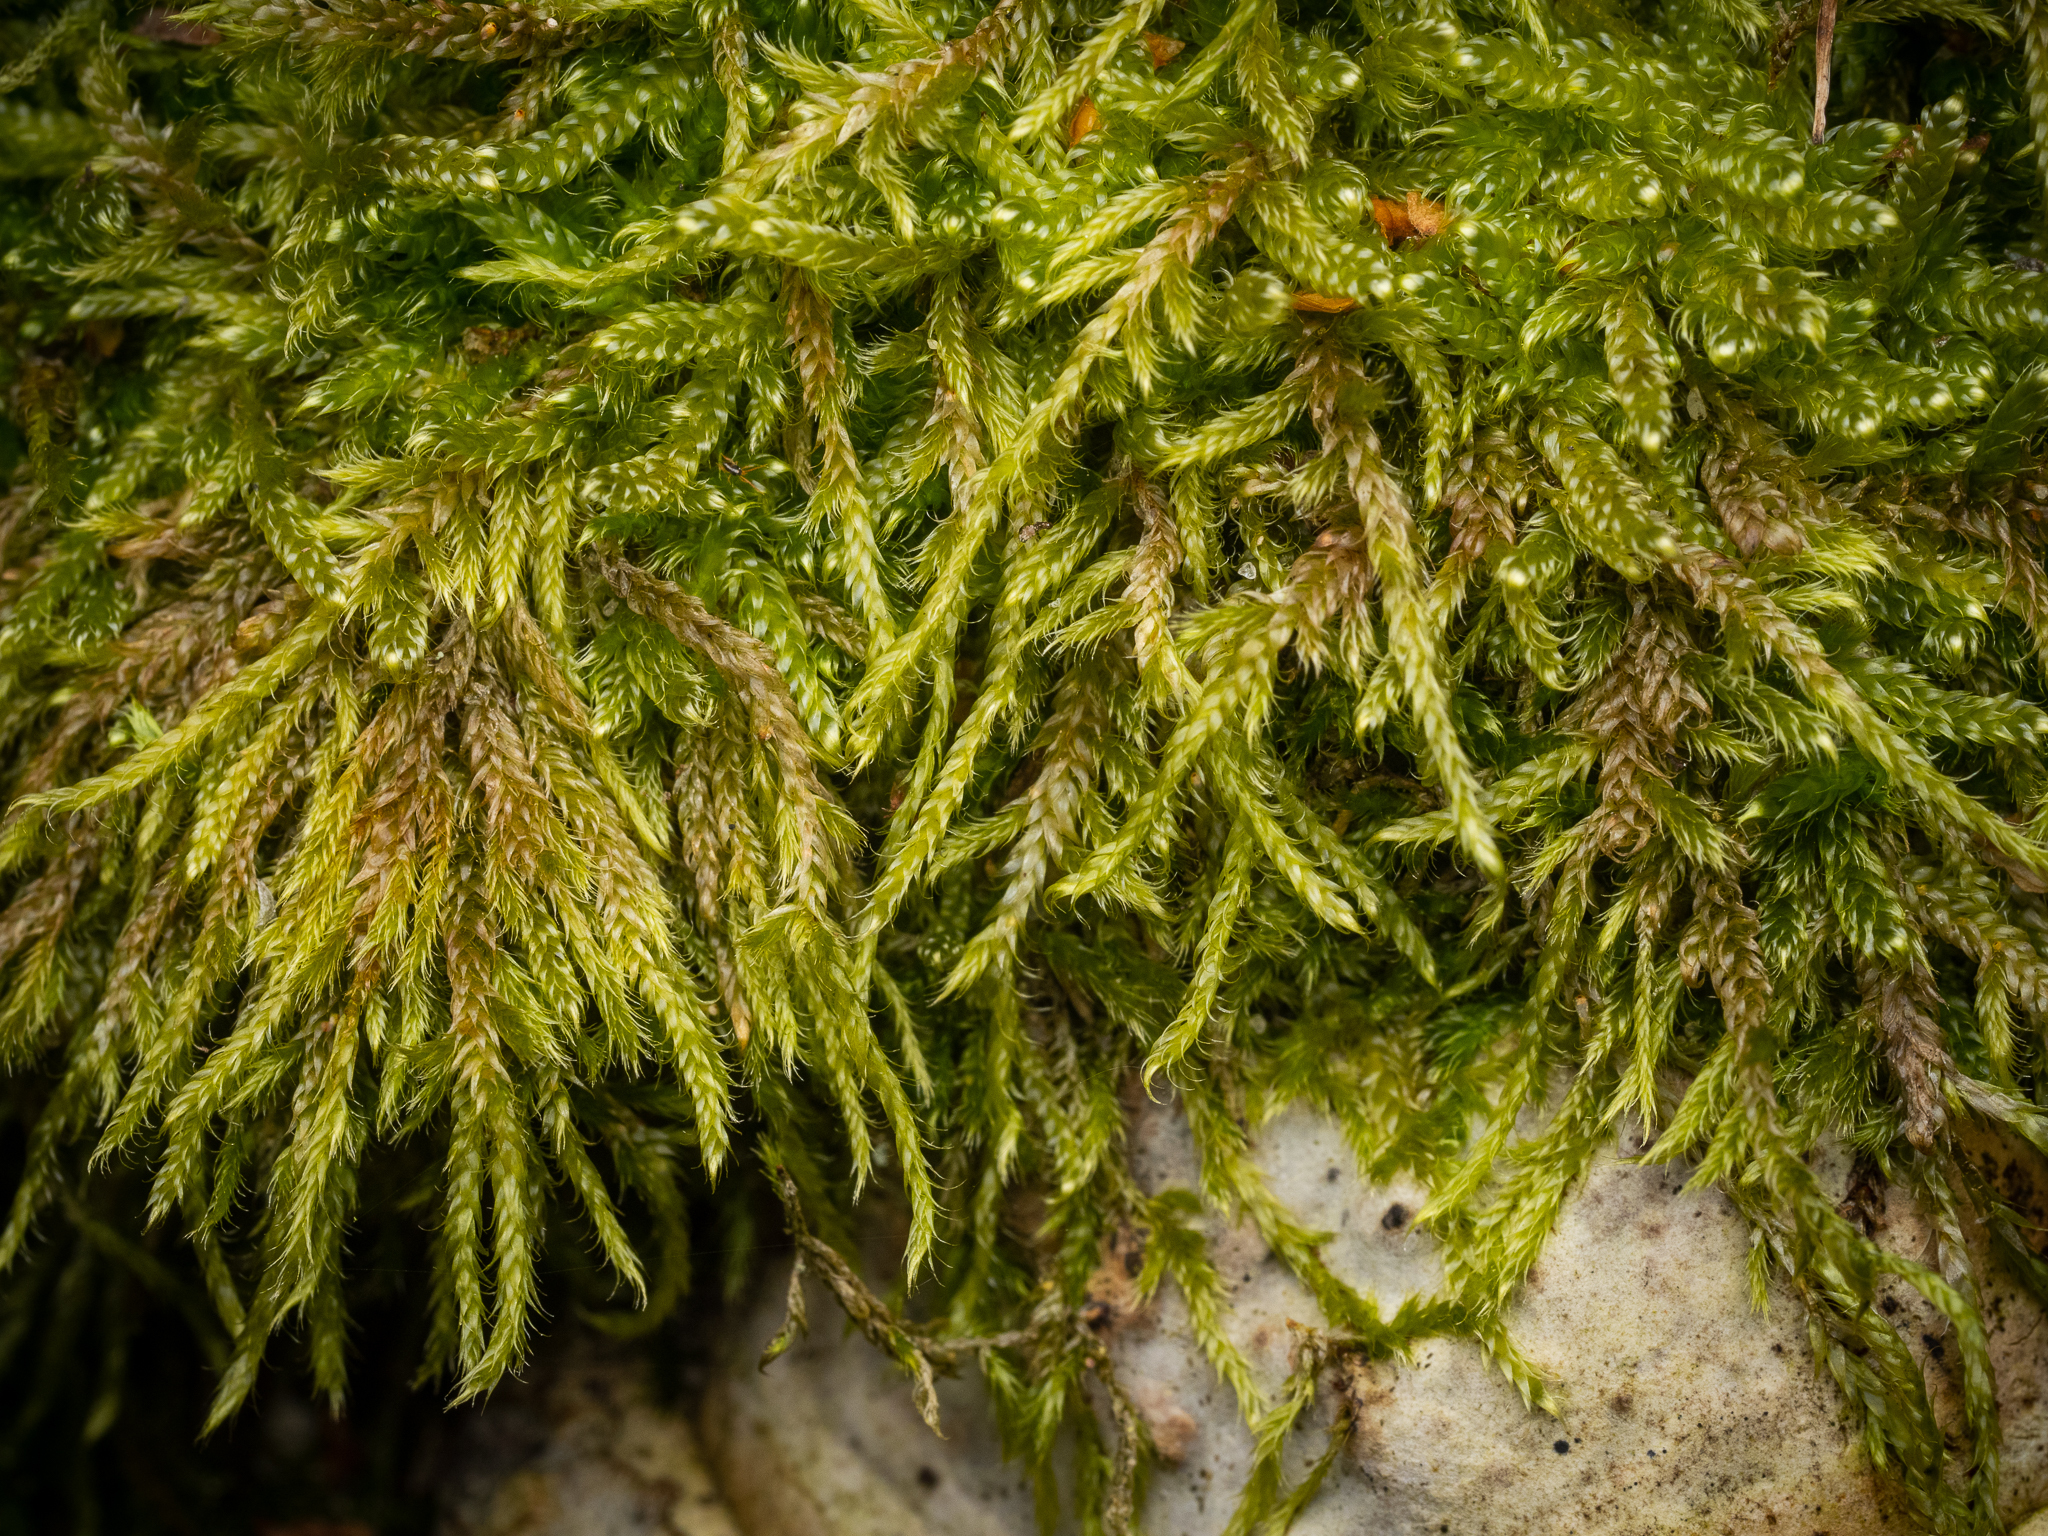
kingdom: Plantae
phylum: Bryophyta
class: Bryopsida
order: Hypnales
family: Hypnaceae
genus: Hypnum
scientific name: Hypnum cupressiforme
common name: Cypress-leaved plait-moss
